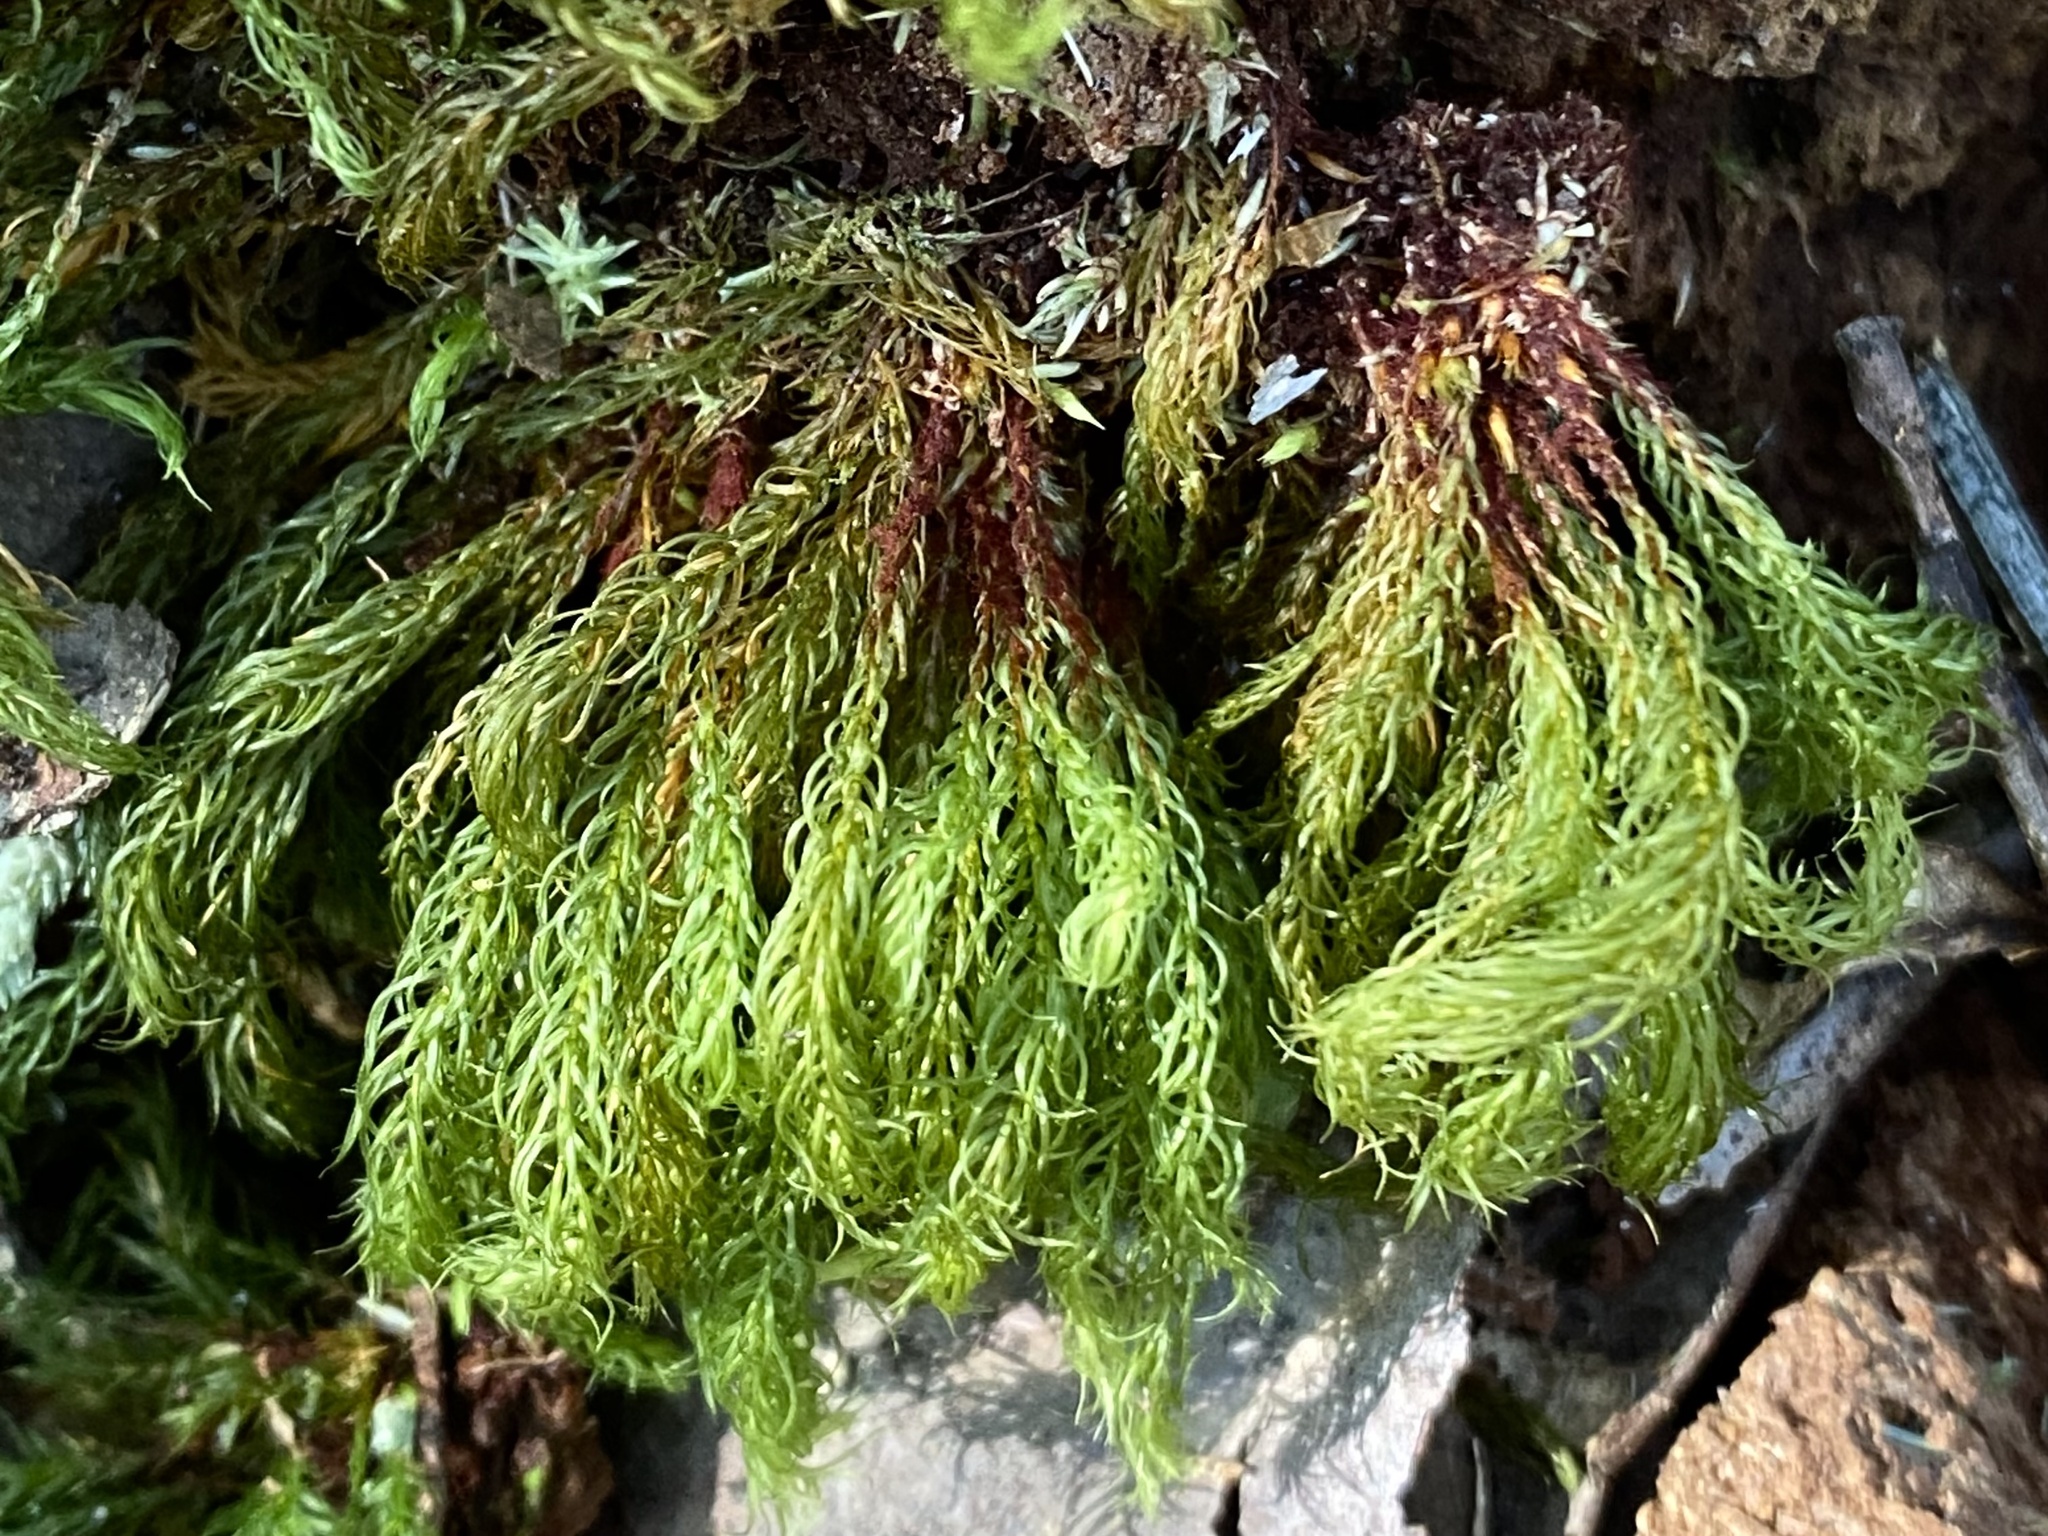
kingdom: Plantae
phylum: Bryophyta
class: Bryopsida
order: Rhizogoniales
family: Calomniaceae
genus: Pyrrhobryum
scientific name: Pyrrhobryum spiniforme
